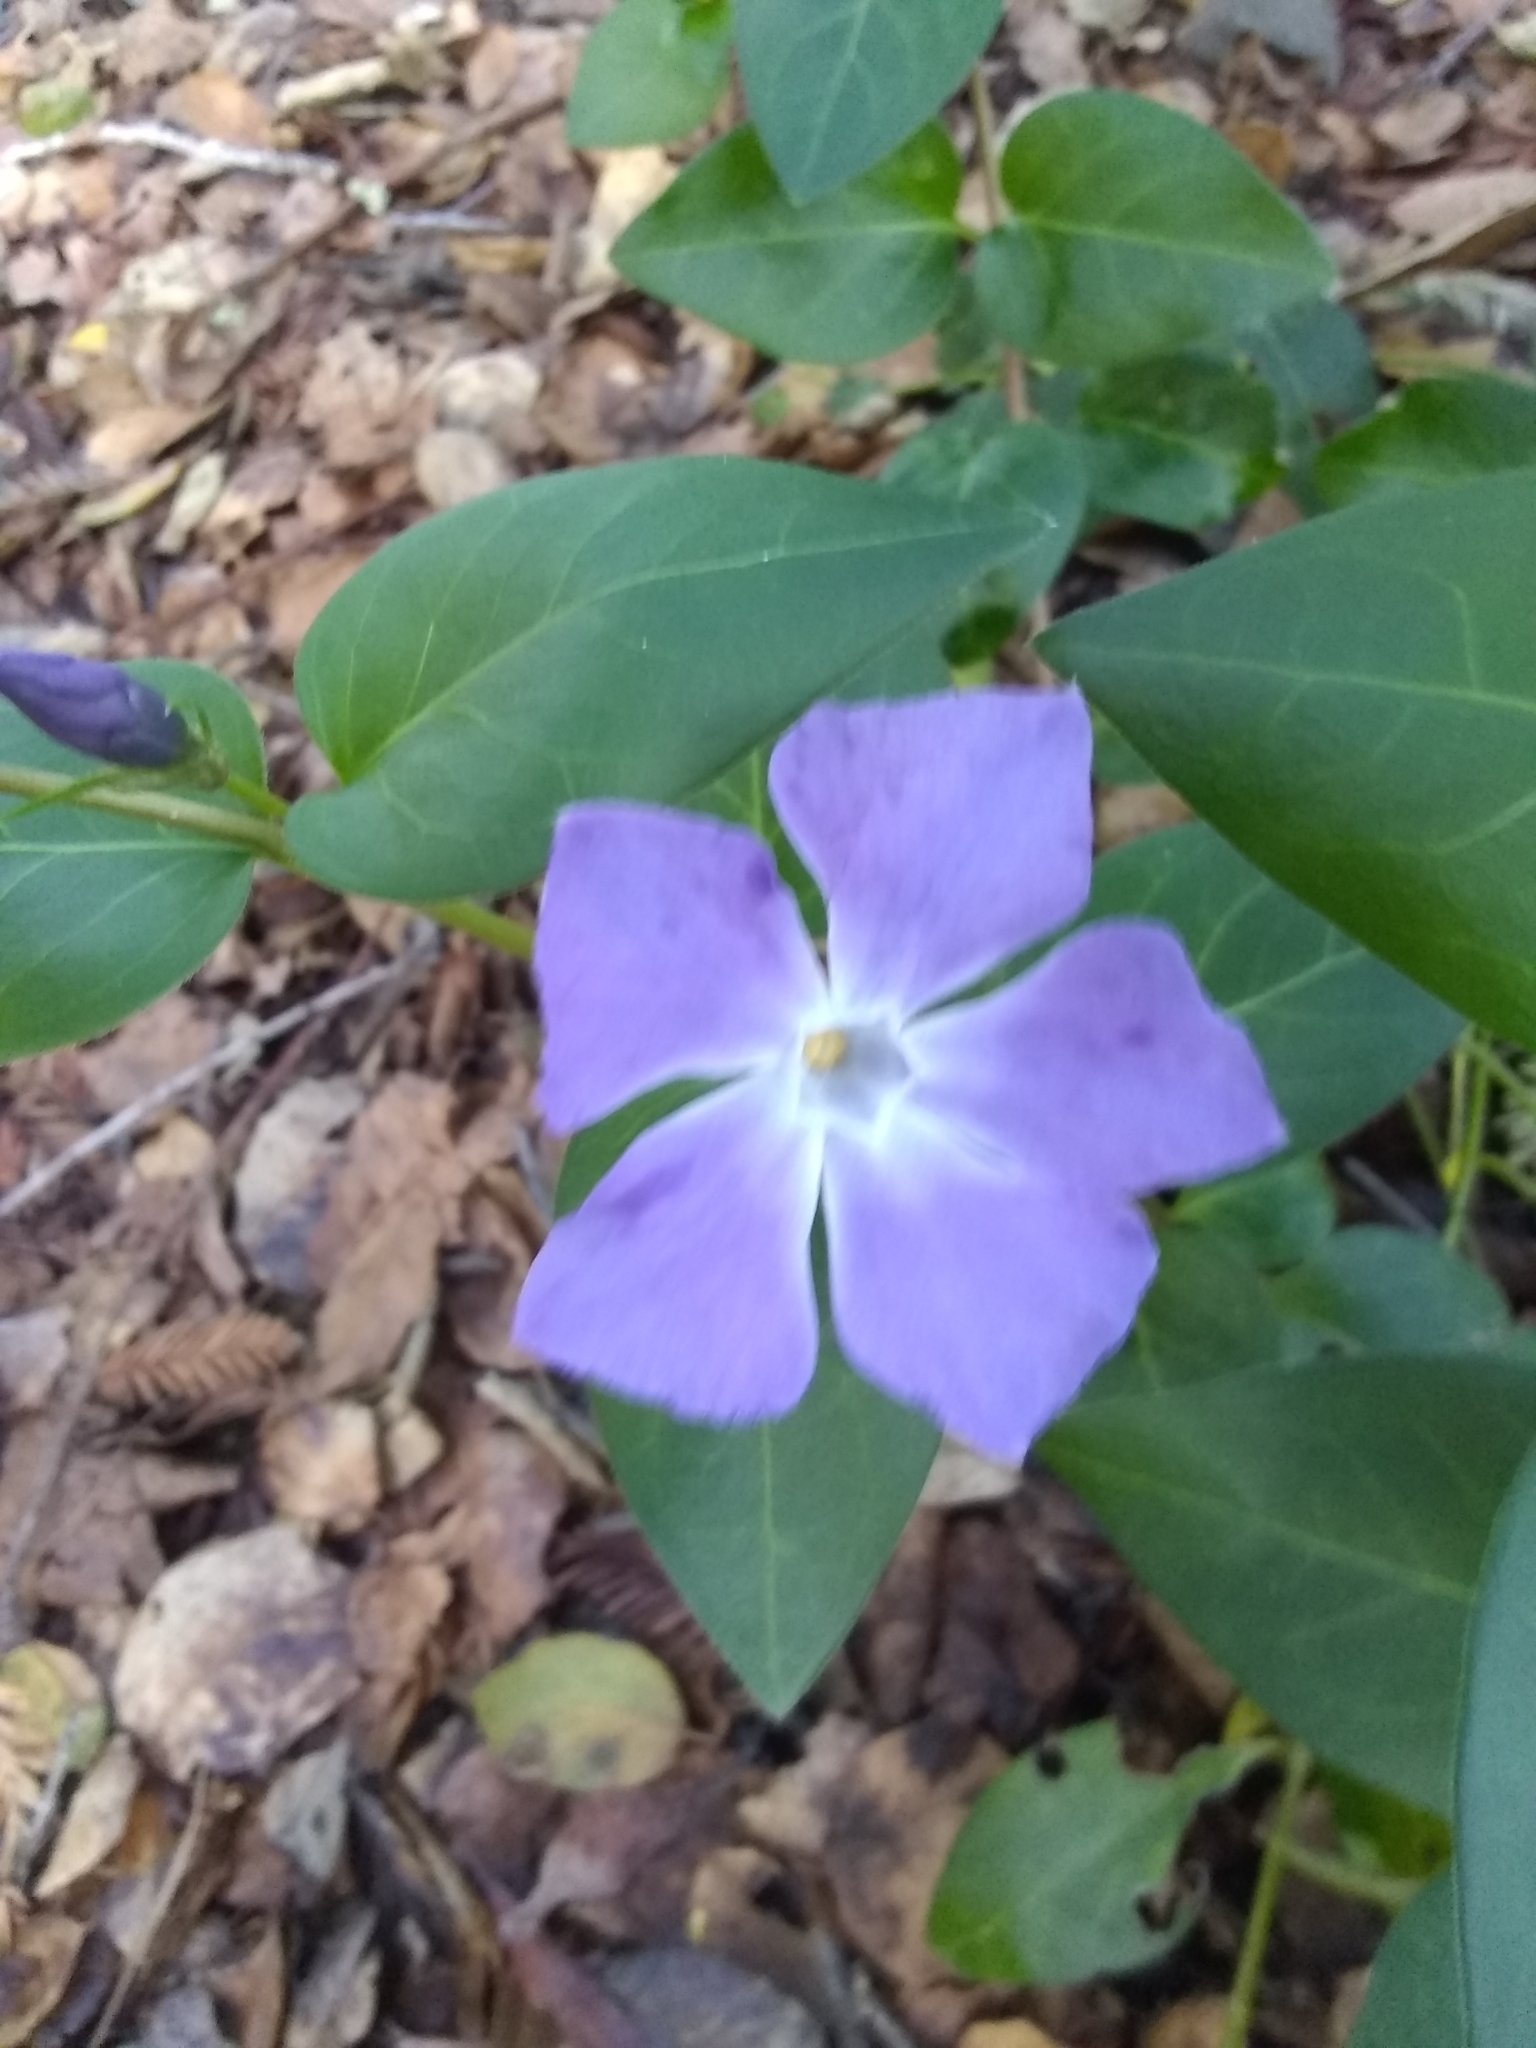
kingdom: Plantae
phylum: Tracheophyta
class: Magnoliopsida
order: Gentianales
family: Apocynaceae
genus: Vinca
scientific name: Vinca major
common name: Greater periwinkle
